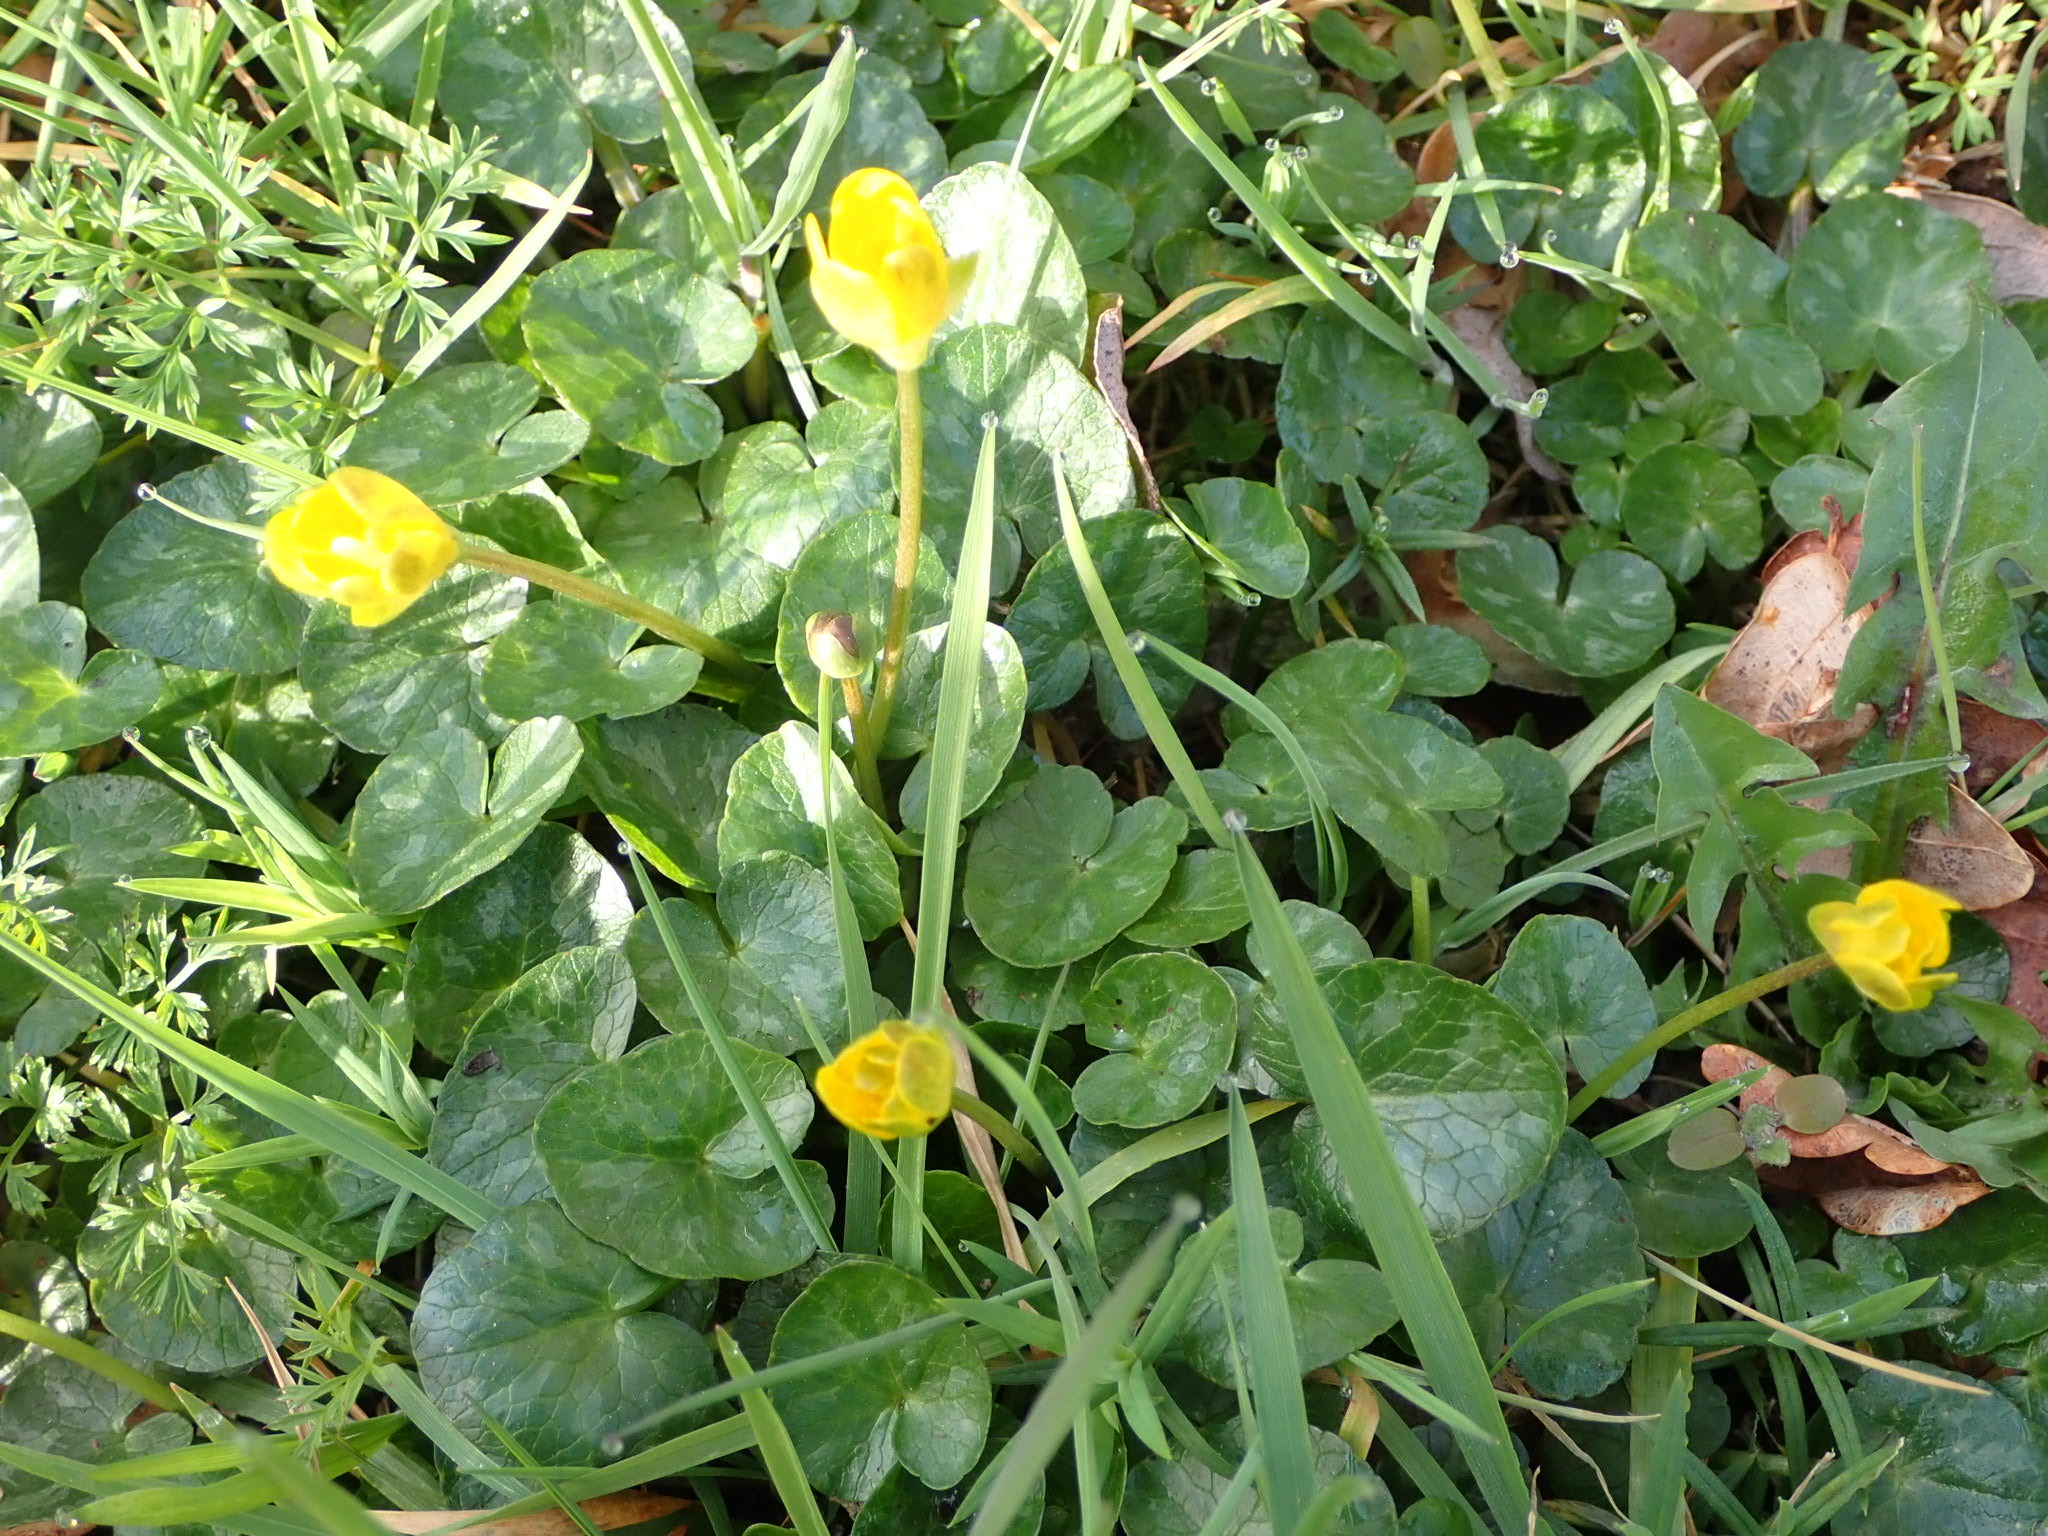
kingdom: Plantae
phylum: Tracheophyta
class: Magnoliopsida
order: Ranunculales
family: Ranunculaceae
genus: Ficaria
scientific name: Ficaria verna
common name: Lesser celandine
